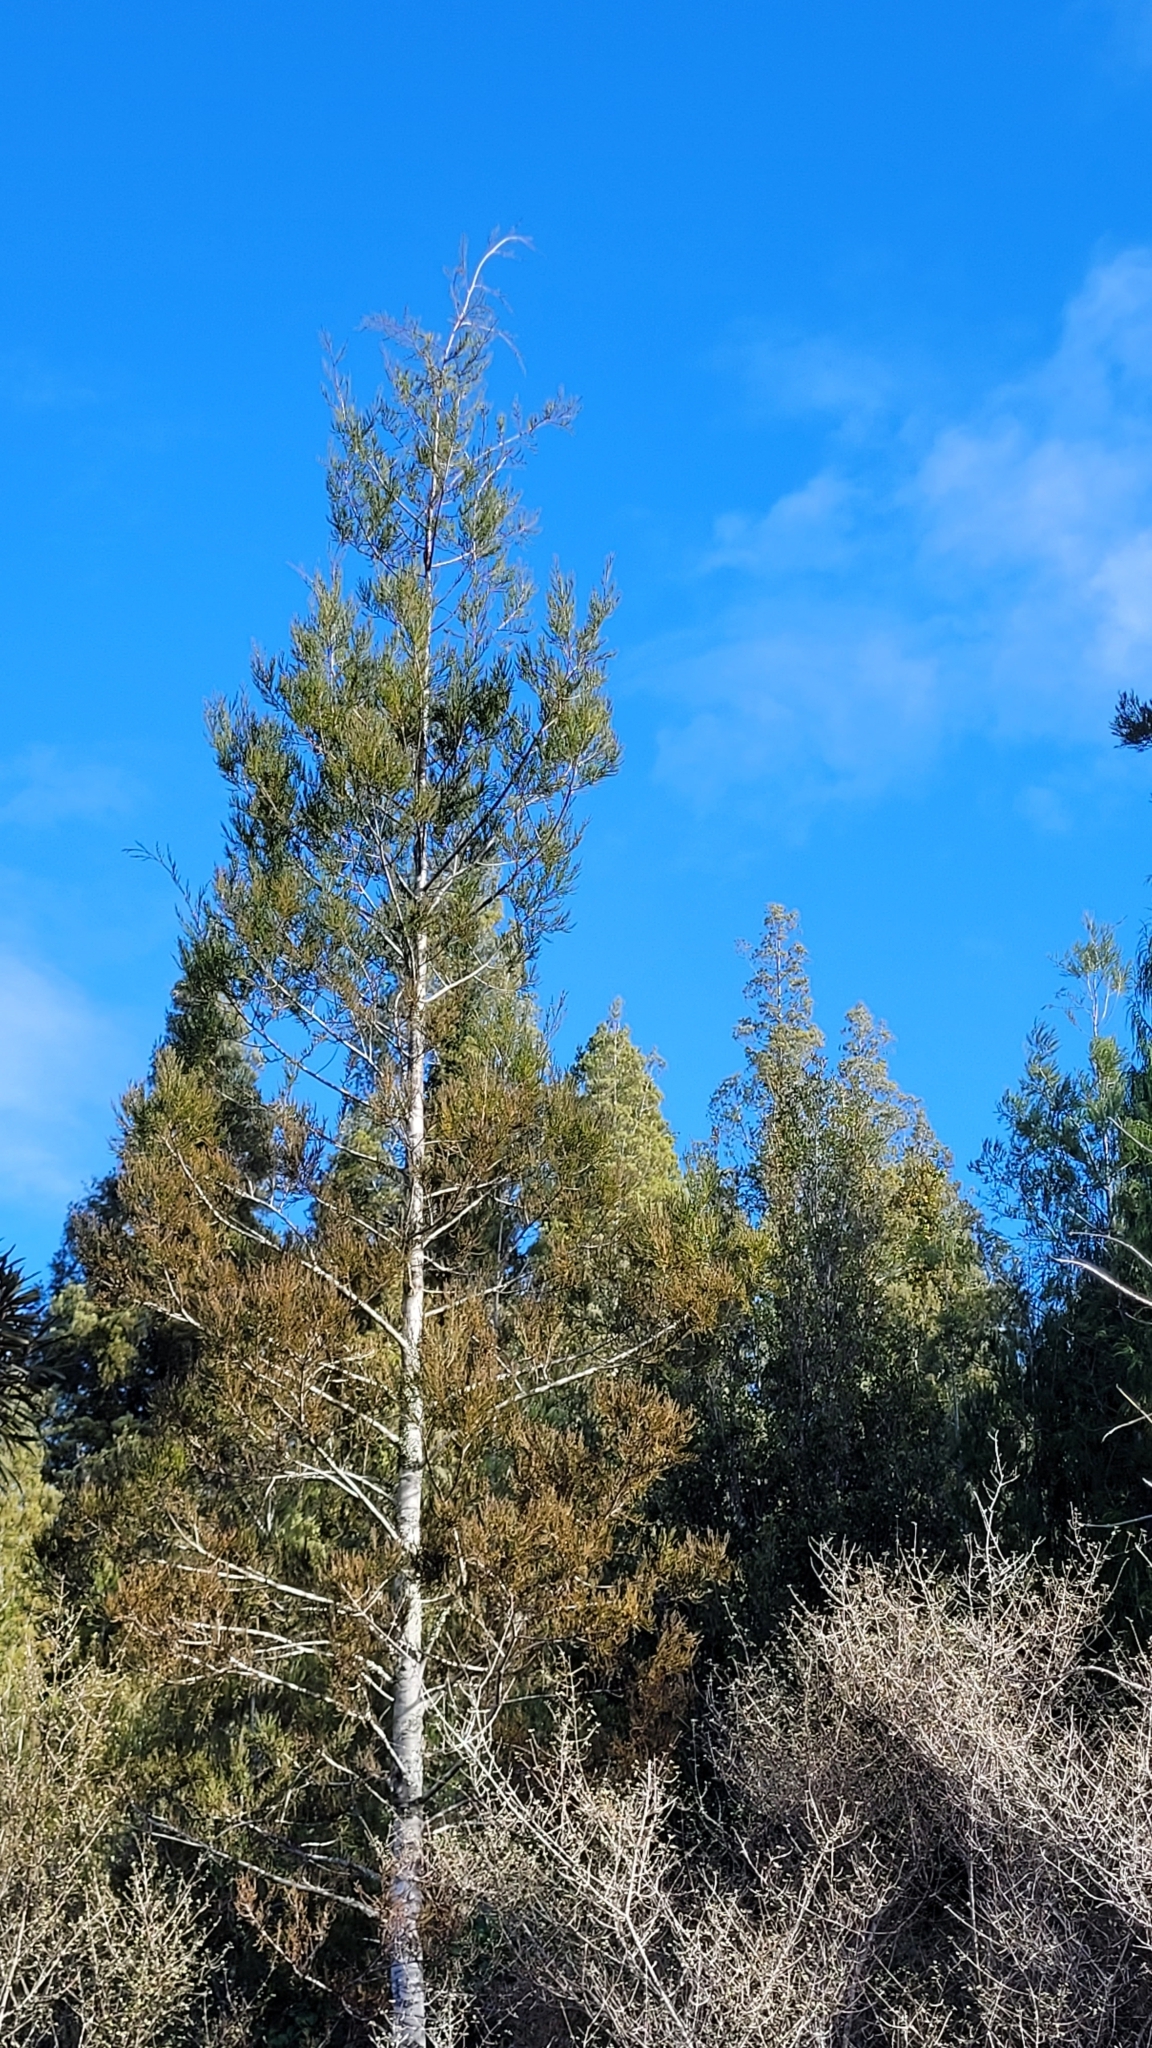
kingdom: Plantae
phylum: Tracheophyta
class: Pinopsida
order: Pinales
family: Podocarpaceae
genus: Manoao
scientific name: Manoao colensoi
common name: Silver pine
